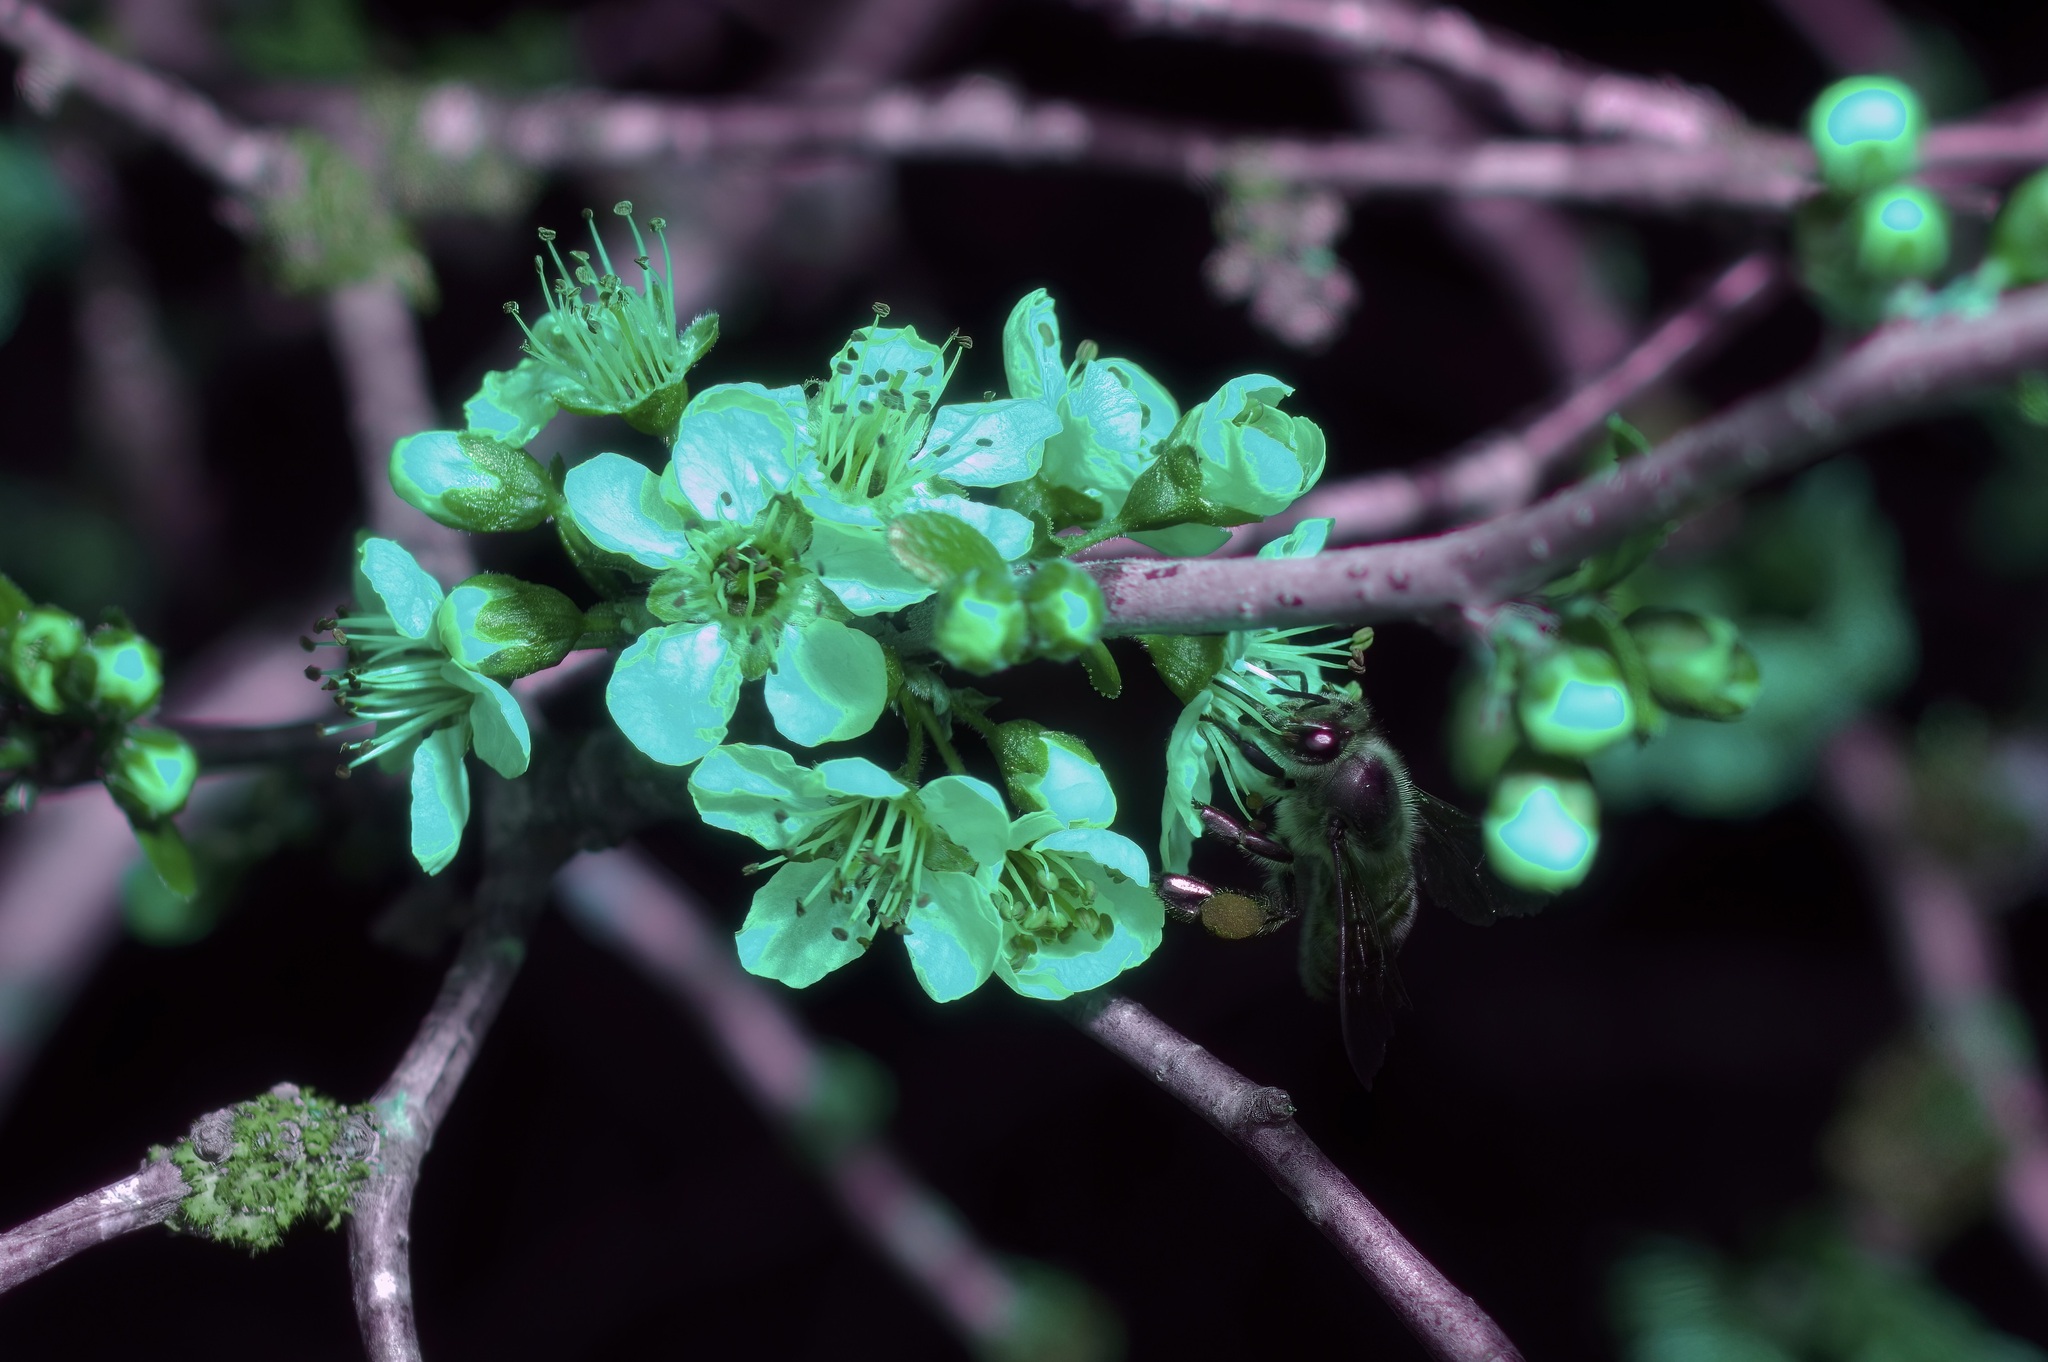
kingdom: Animalia
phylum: Arthropoda
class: Insecta
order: Hymenoptera
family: Apidae
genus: Apis
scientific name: Apis mellifera
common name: Honey bee
